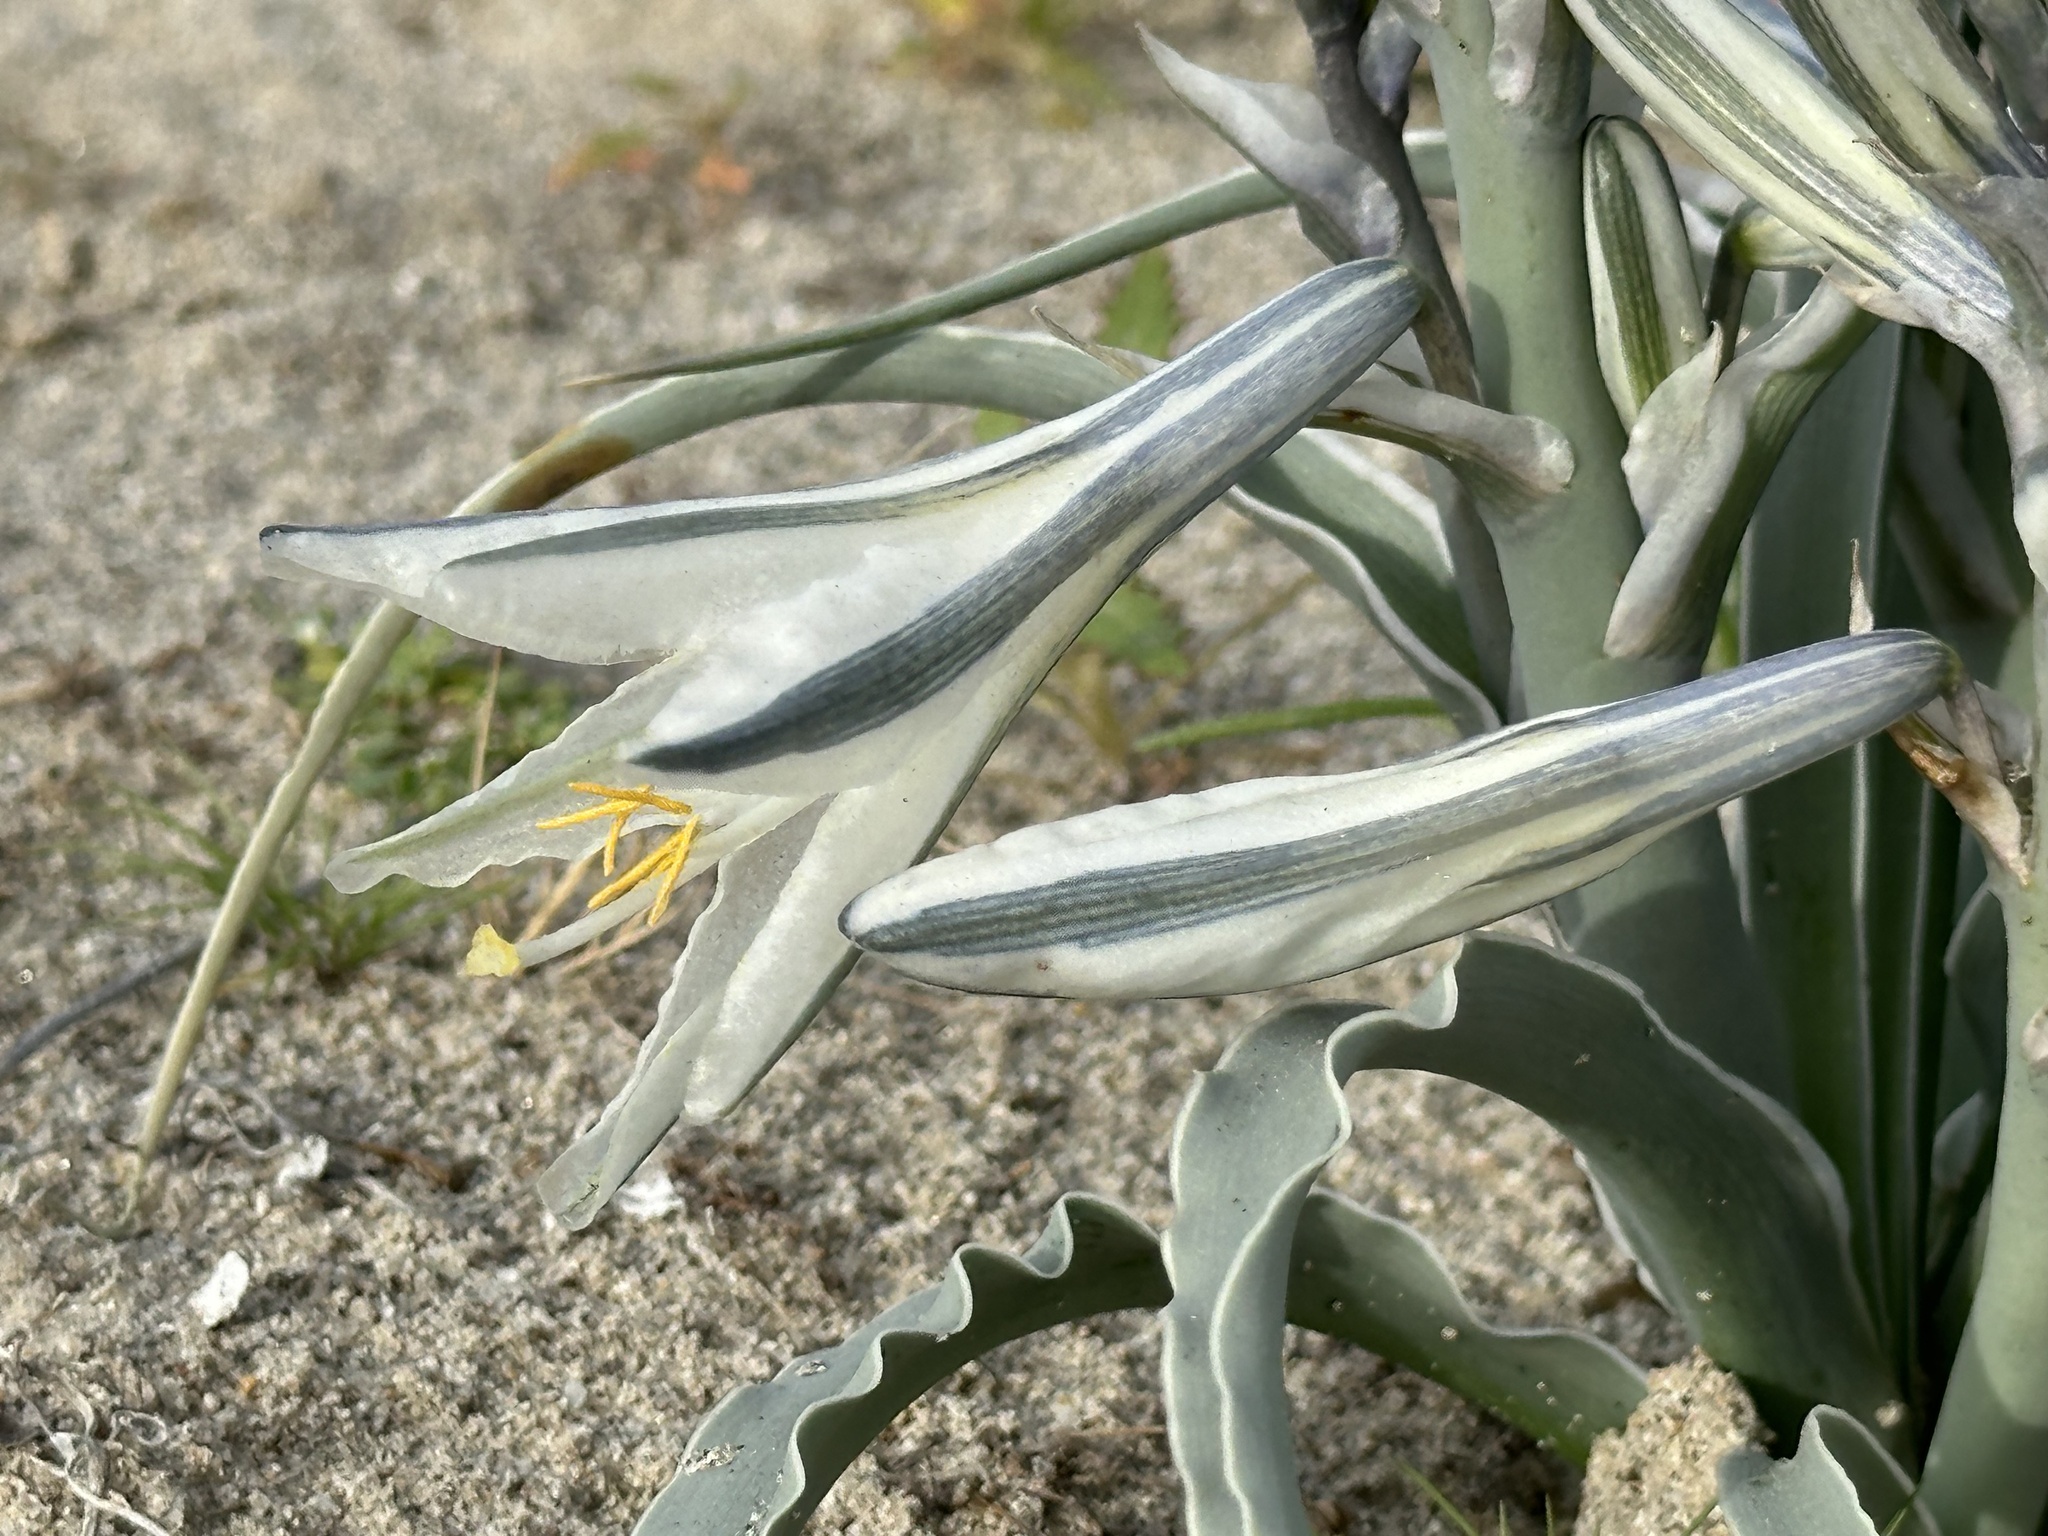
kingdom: Plantae
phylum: Tracheophyta
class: Liliopsida
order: Asparagales
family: Asparagaceae
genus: Hesperocallis
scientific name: Hesperocallis undulata
